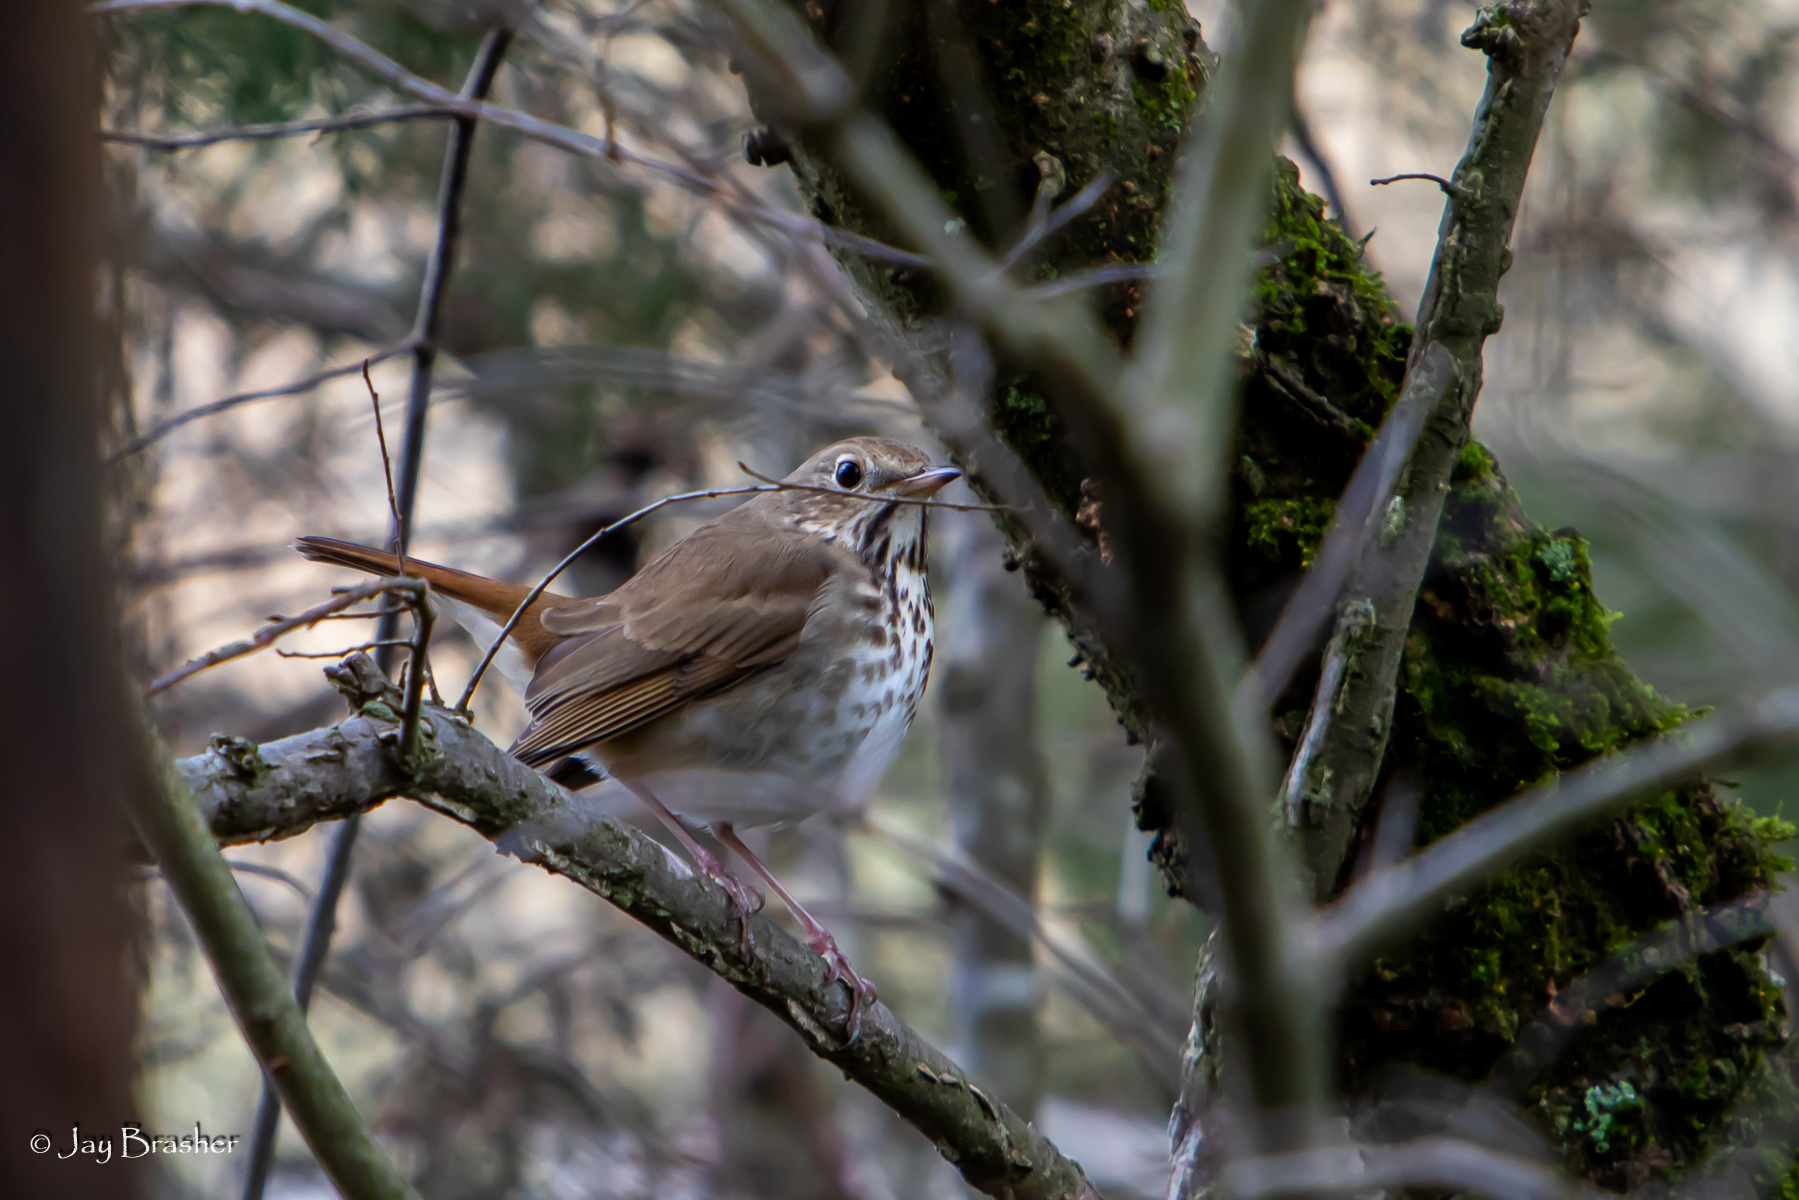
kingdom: Animalia
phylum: Chordata
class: Aves
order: Passeriformes
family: Turdidae
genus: Catharus
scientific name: Catharus guttatus
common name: Hermit thrush
